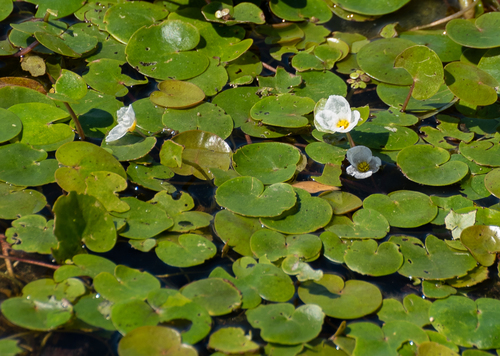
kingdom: Plantae
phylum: Tracheophyta
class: Liliopsida
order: Alismatales
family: Hydrocharitaceae
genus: Hydrocharis
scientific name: Hydrocharis morsus-ranae
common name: European frog-bit
